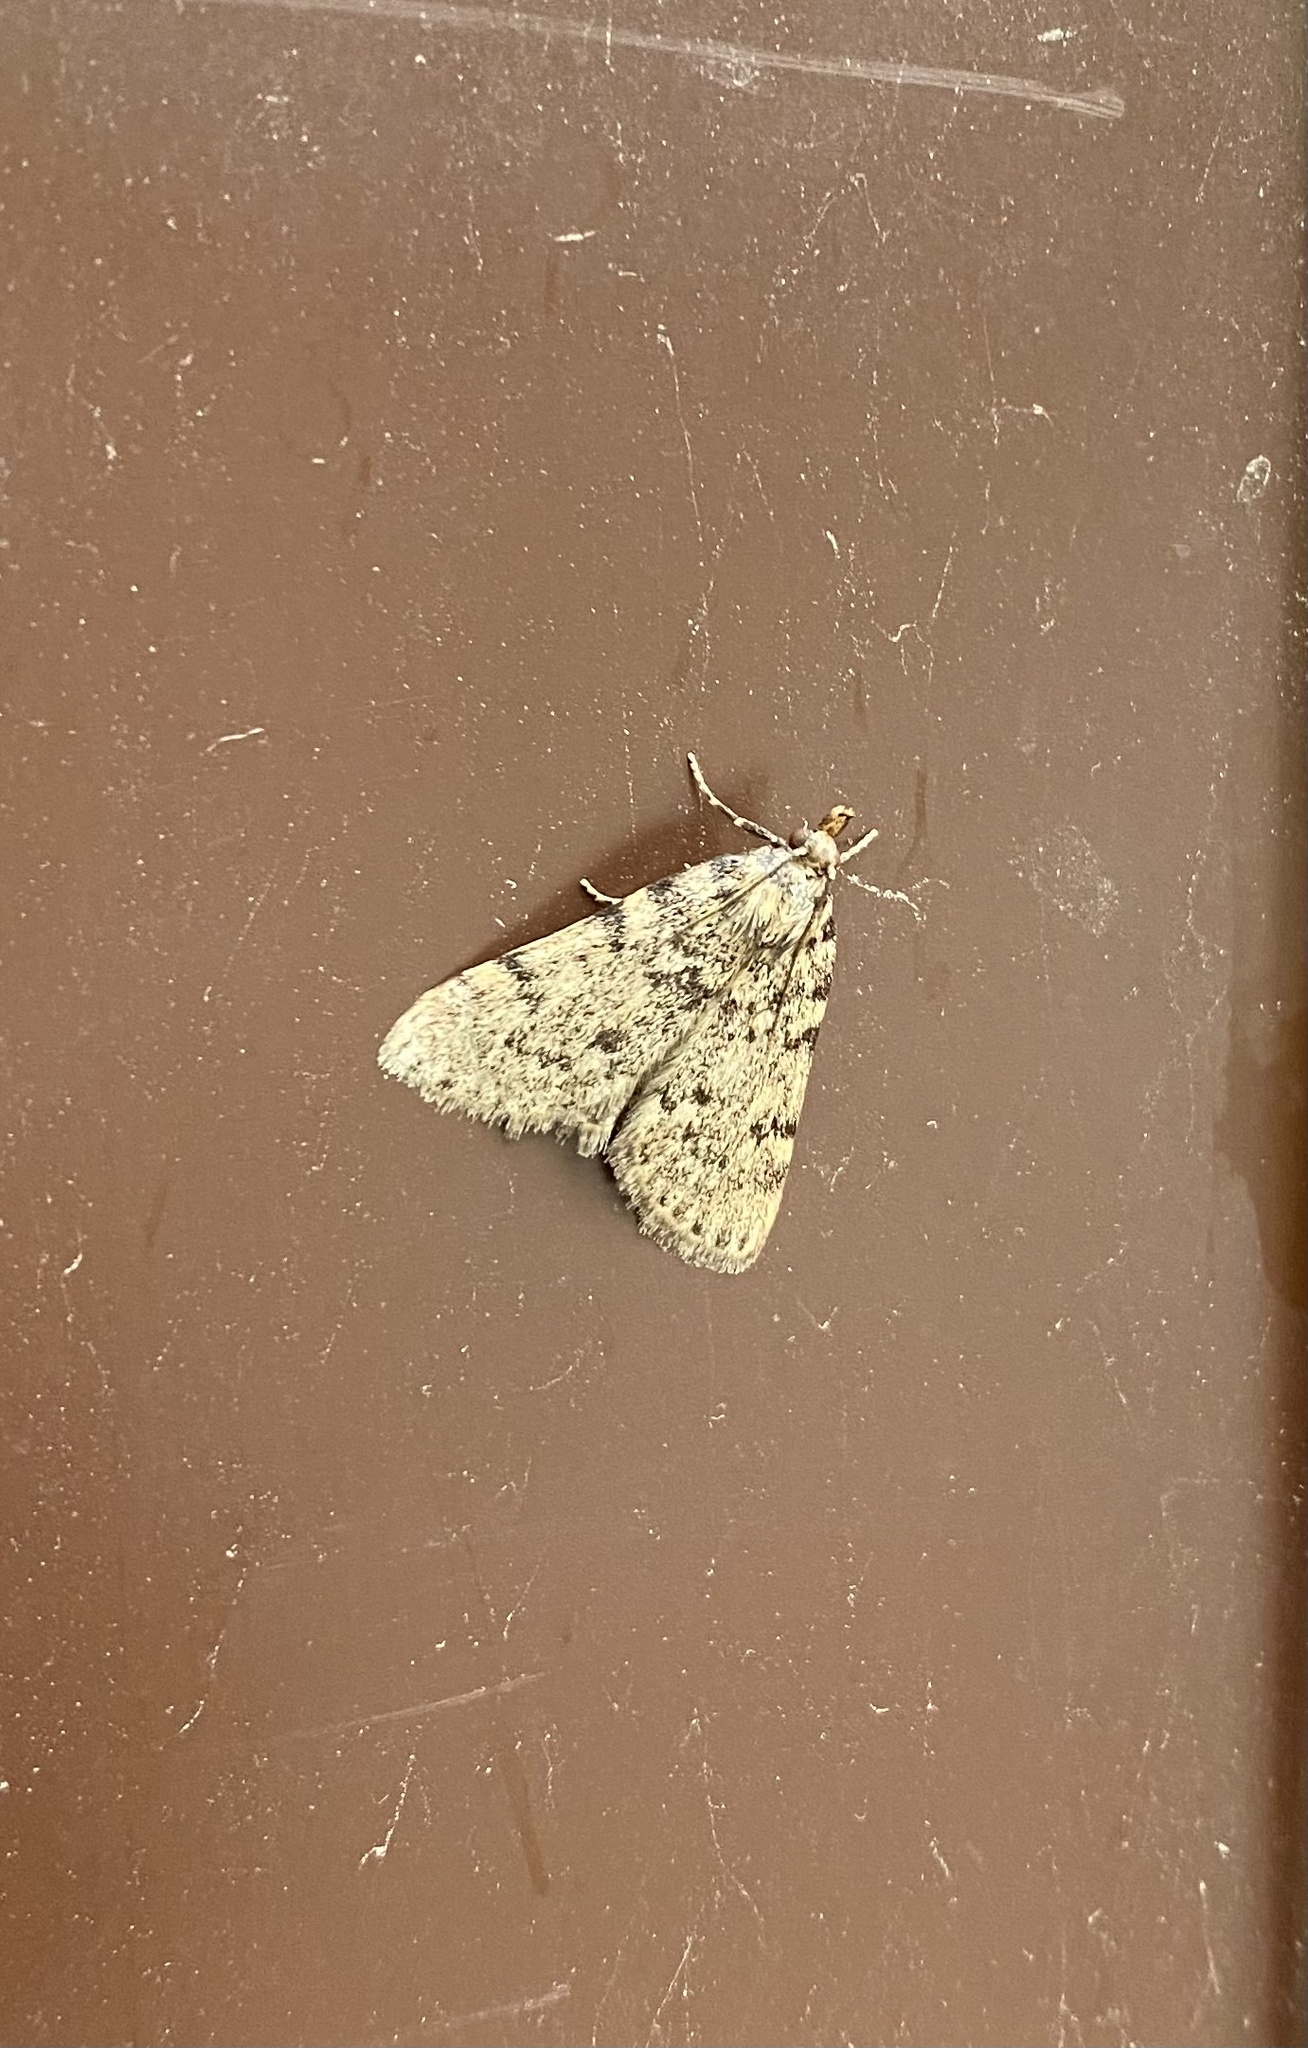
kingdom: Animalia
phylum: Arthropoda
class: Insecta
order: Lepidoptera
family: Pyralidae
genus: Aglossa
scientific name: Aglossa pinguinalis
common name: Large tabby
